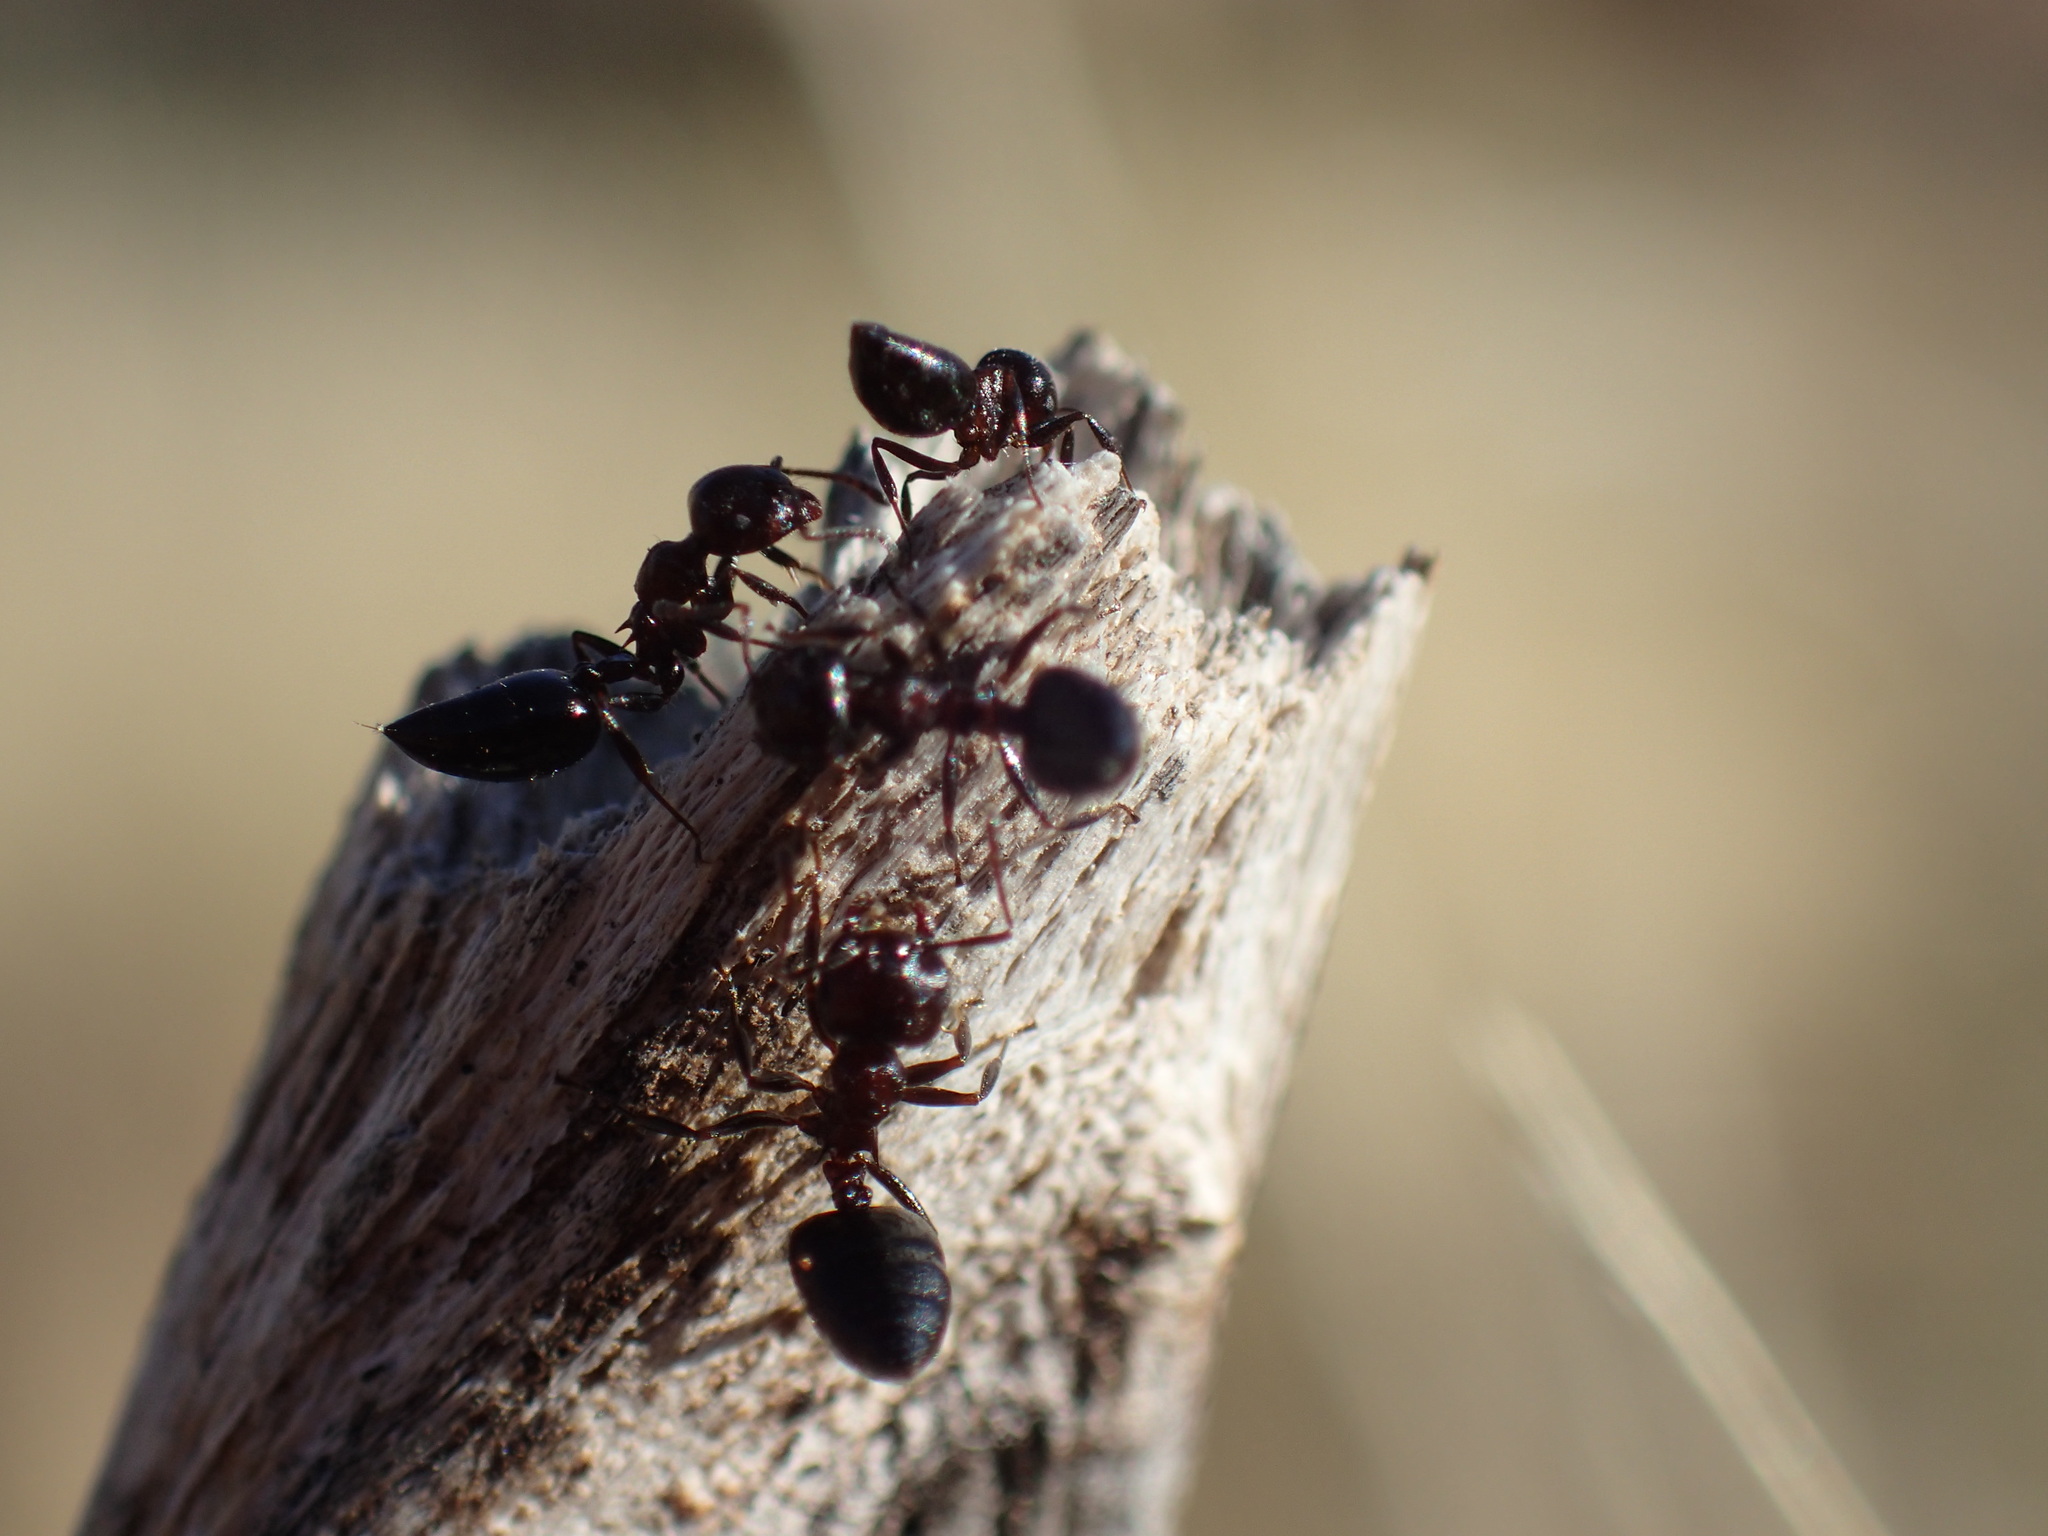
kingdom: Animalia
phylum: Arthropoda
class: Insecta
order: Hymenoptera
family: Formicidae
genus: Crematogaster
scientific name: Crematogaster peringueyi
